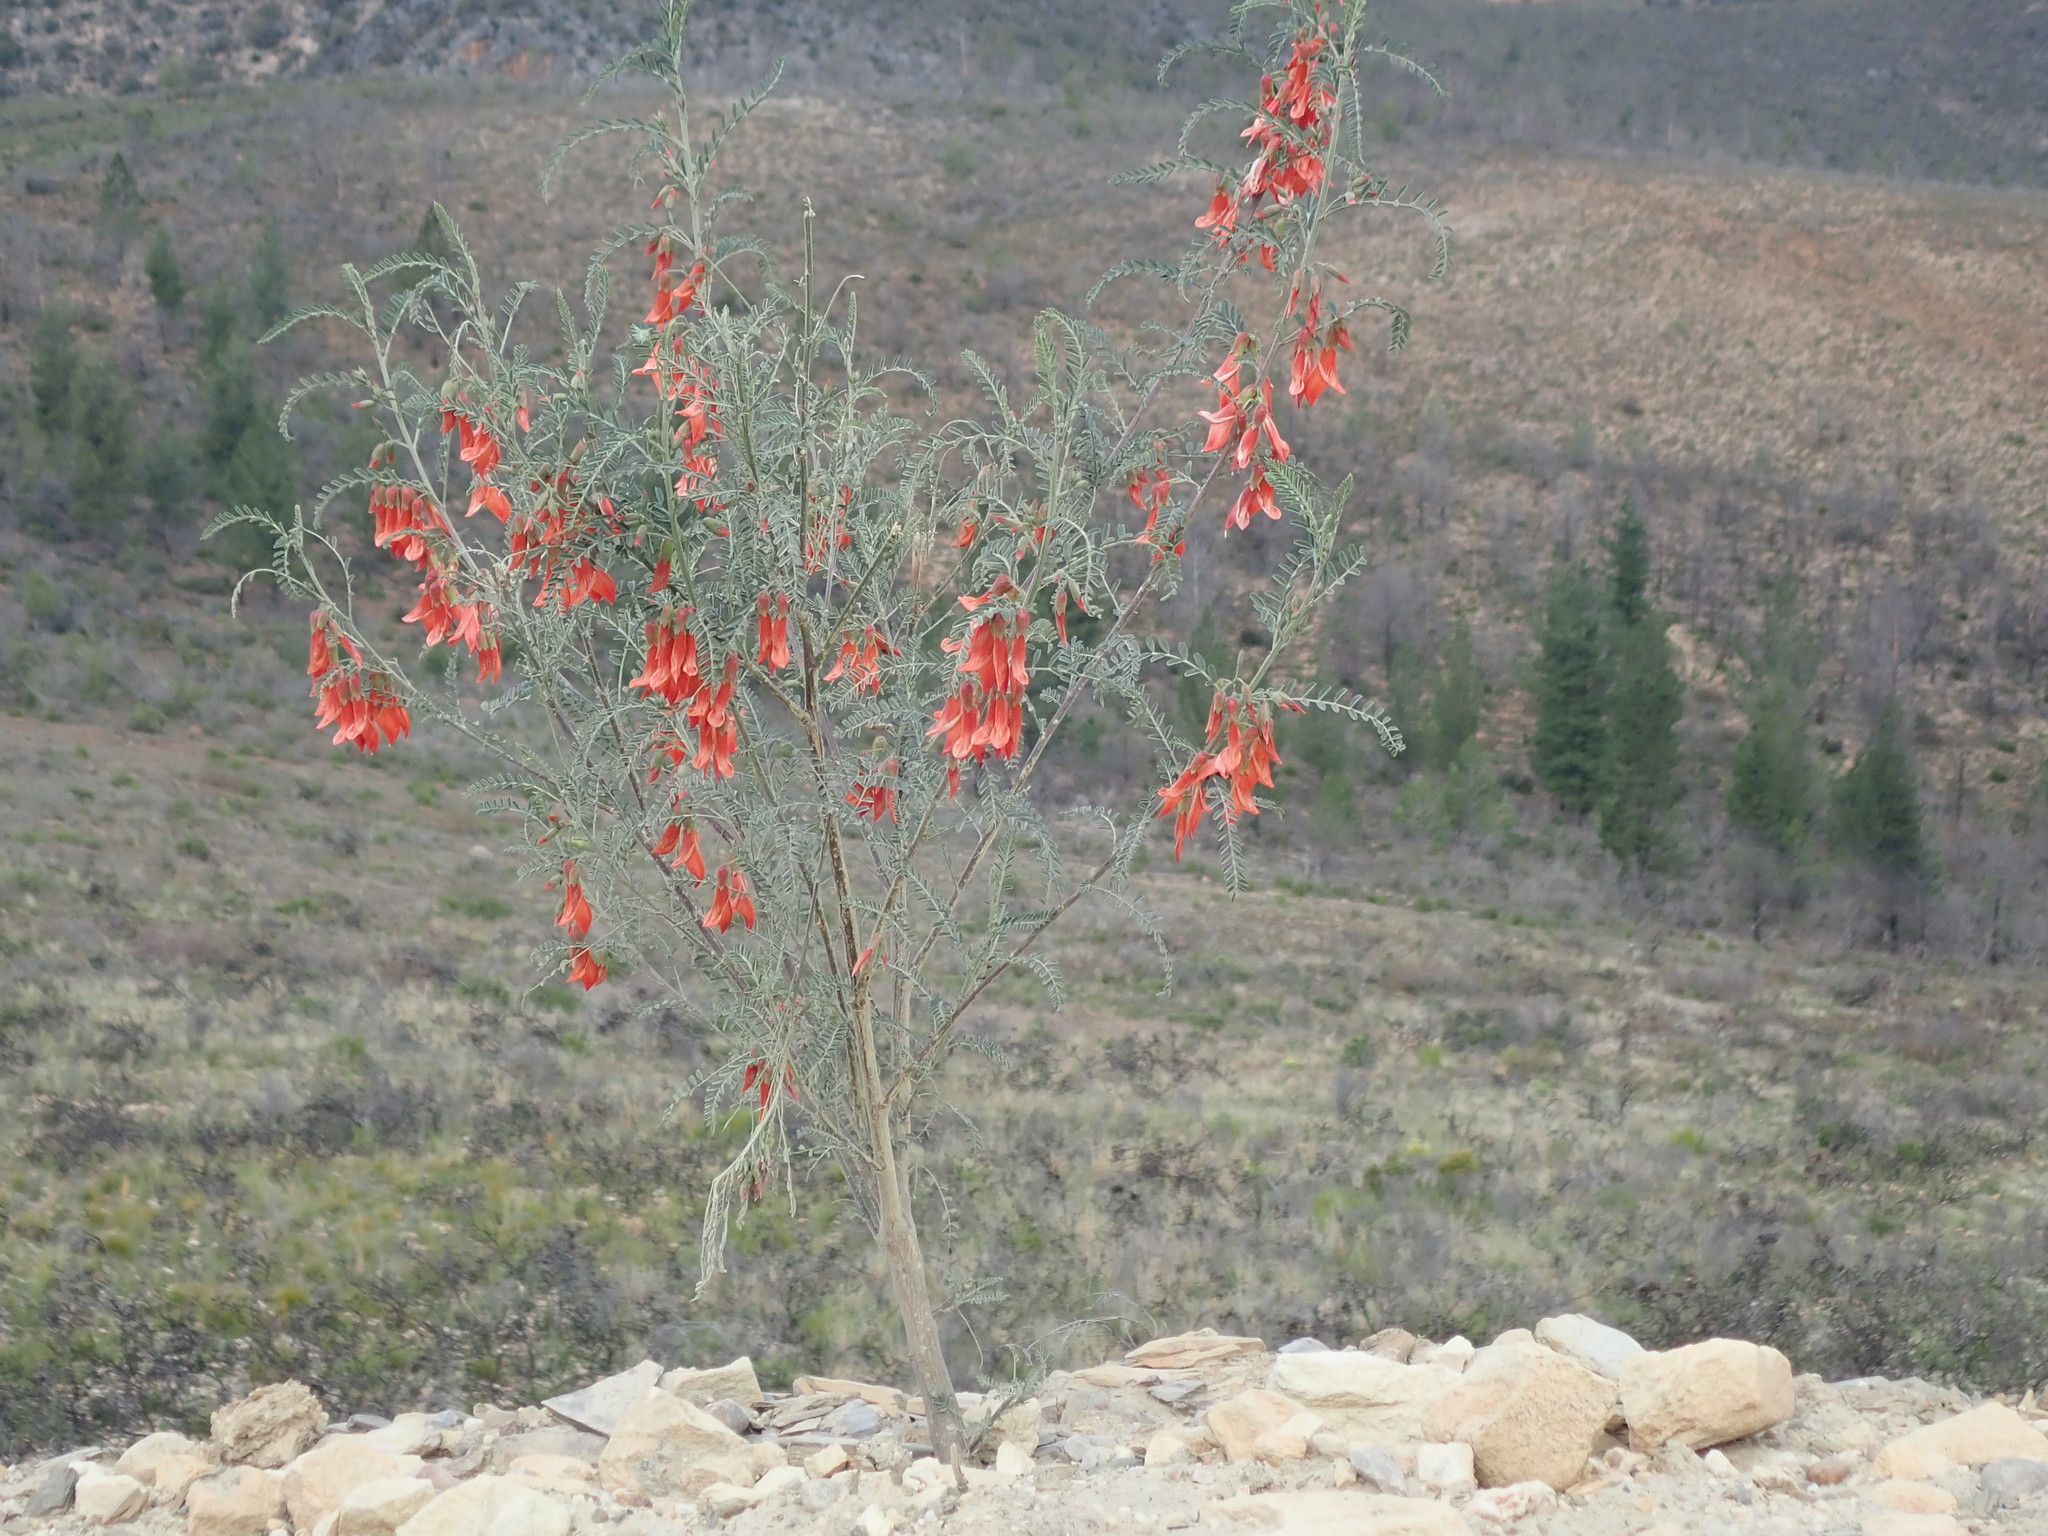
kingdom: Plantae
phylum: Tracheophyta
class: Magnoliopsida
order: Fabales
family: Fabaceae
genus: Lessertia
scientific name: Lessertia frutescens
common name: Balloon-pea
